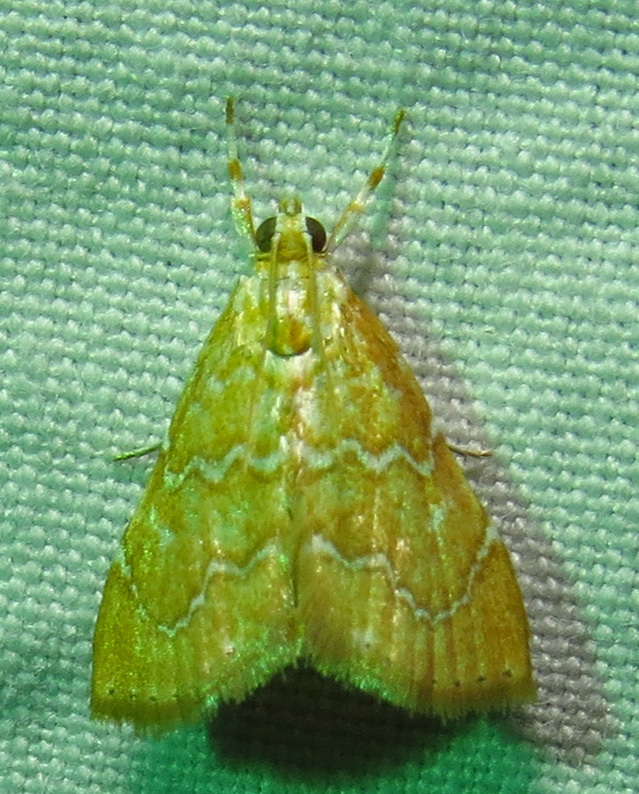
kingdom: Animalia
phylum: Arthropoda
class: Insecta
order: Lepidoptera
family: Crambidae
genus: Glaphyria
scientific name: Glaphyria sesquistrialis
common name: White-roped glaphyria
